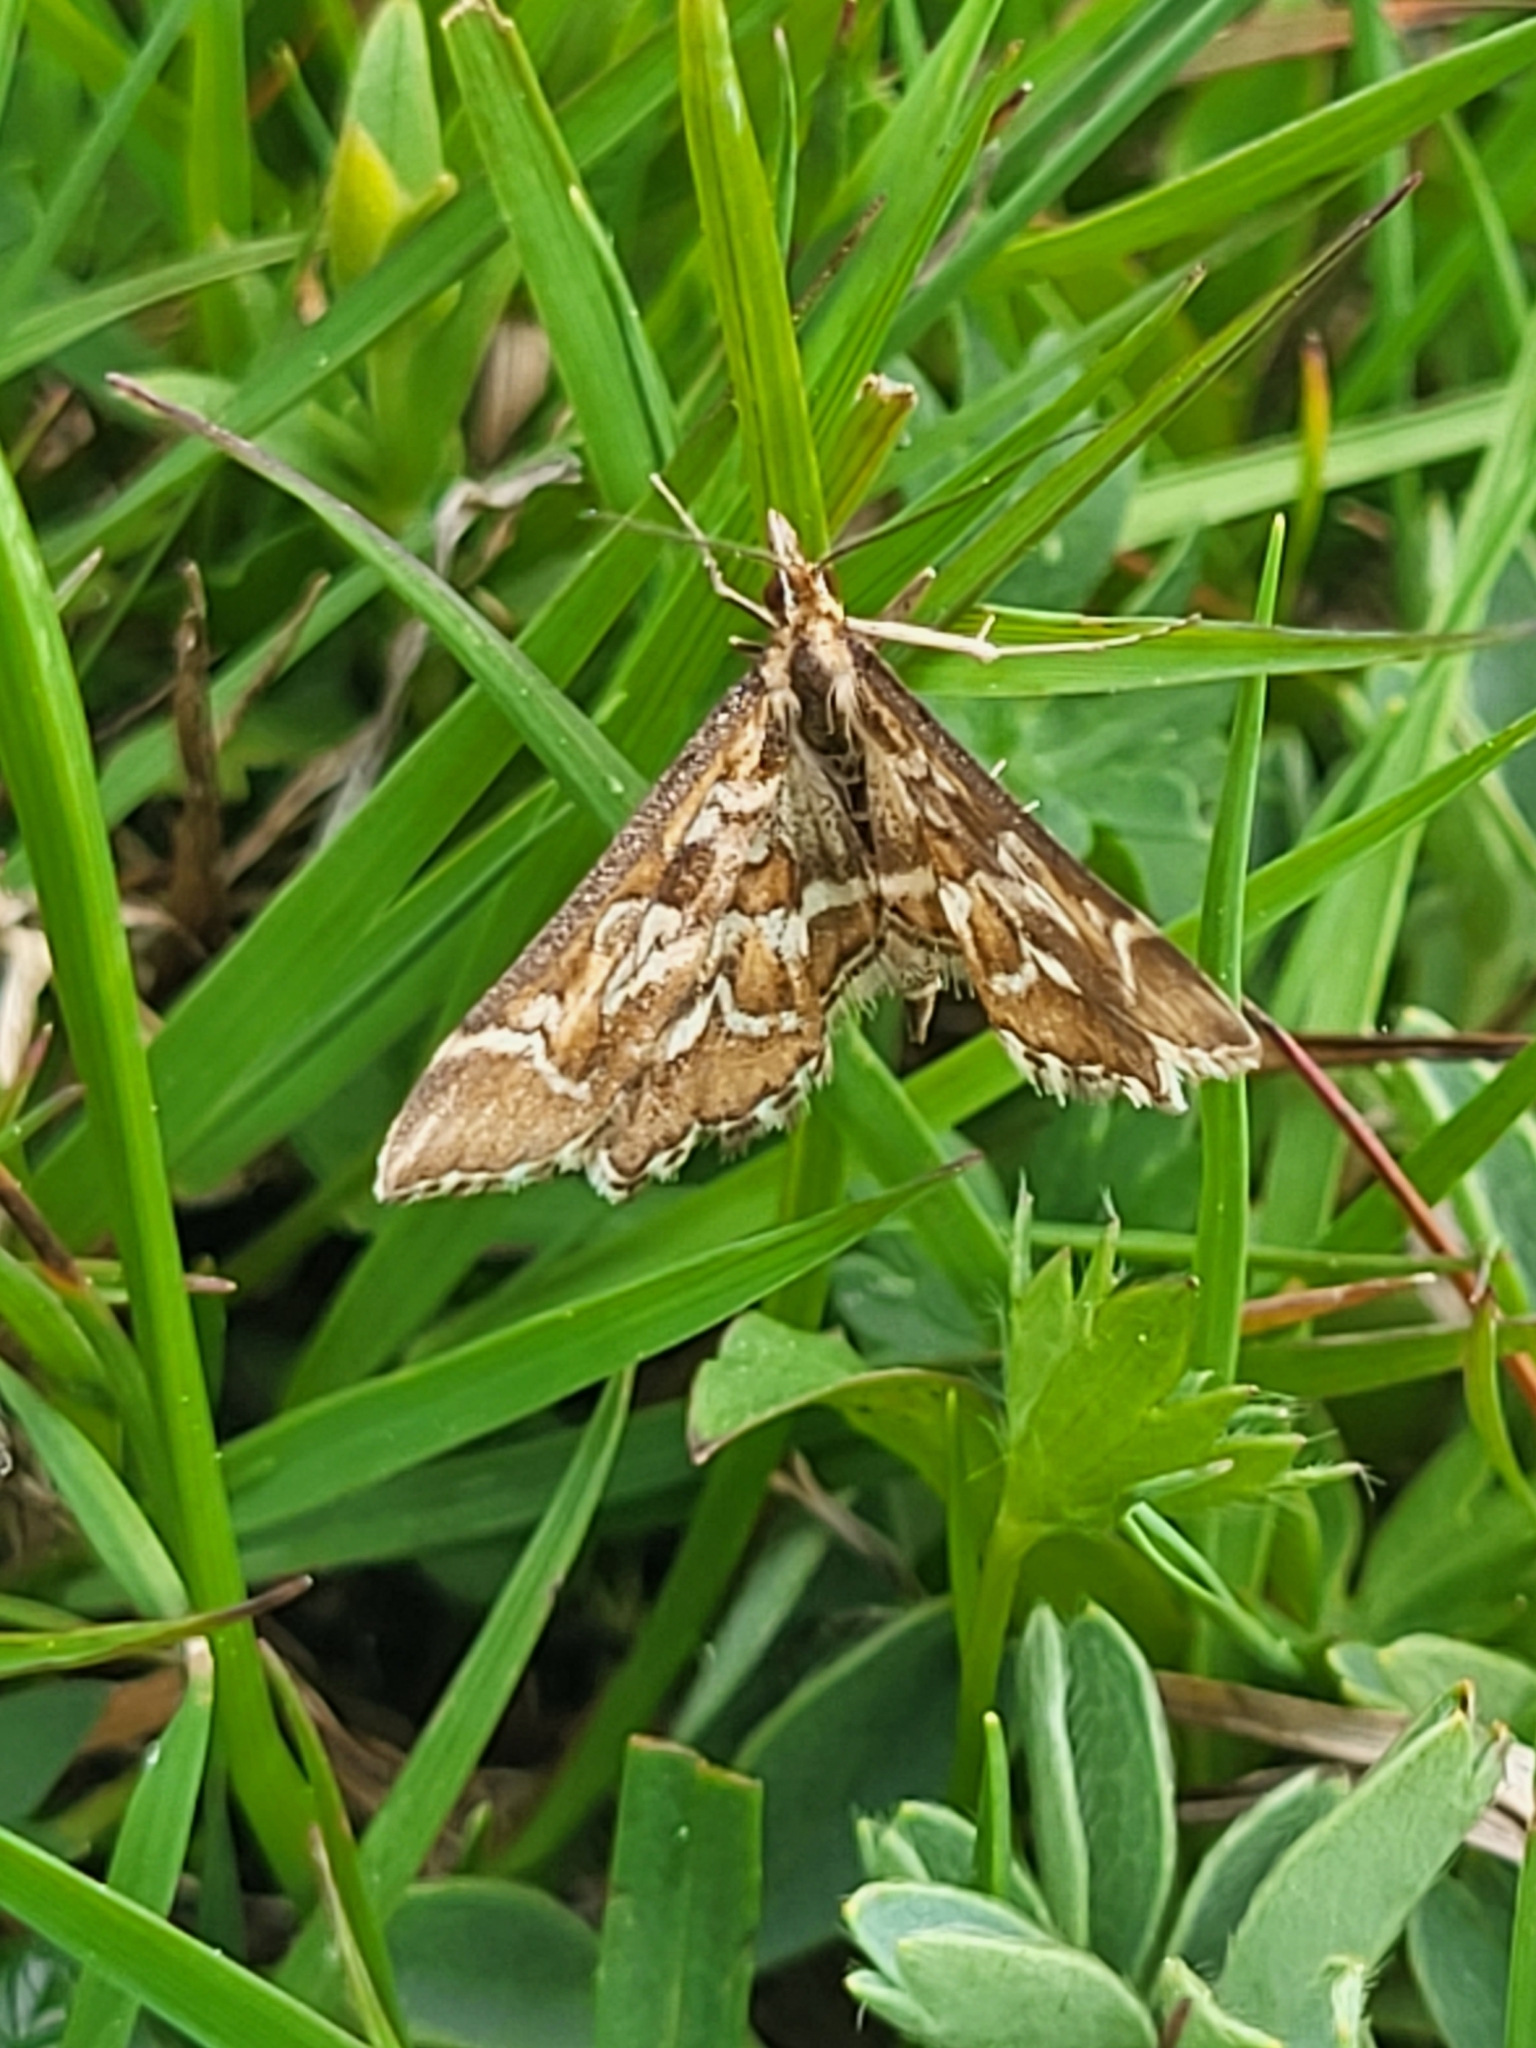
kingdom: Animalia
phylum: Arthropoda
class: Insecta
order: Lepidoptera
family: Crambidae
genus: Diasemia
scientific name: Diasemia reticularis
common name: Lettered china-mark
